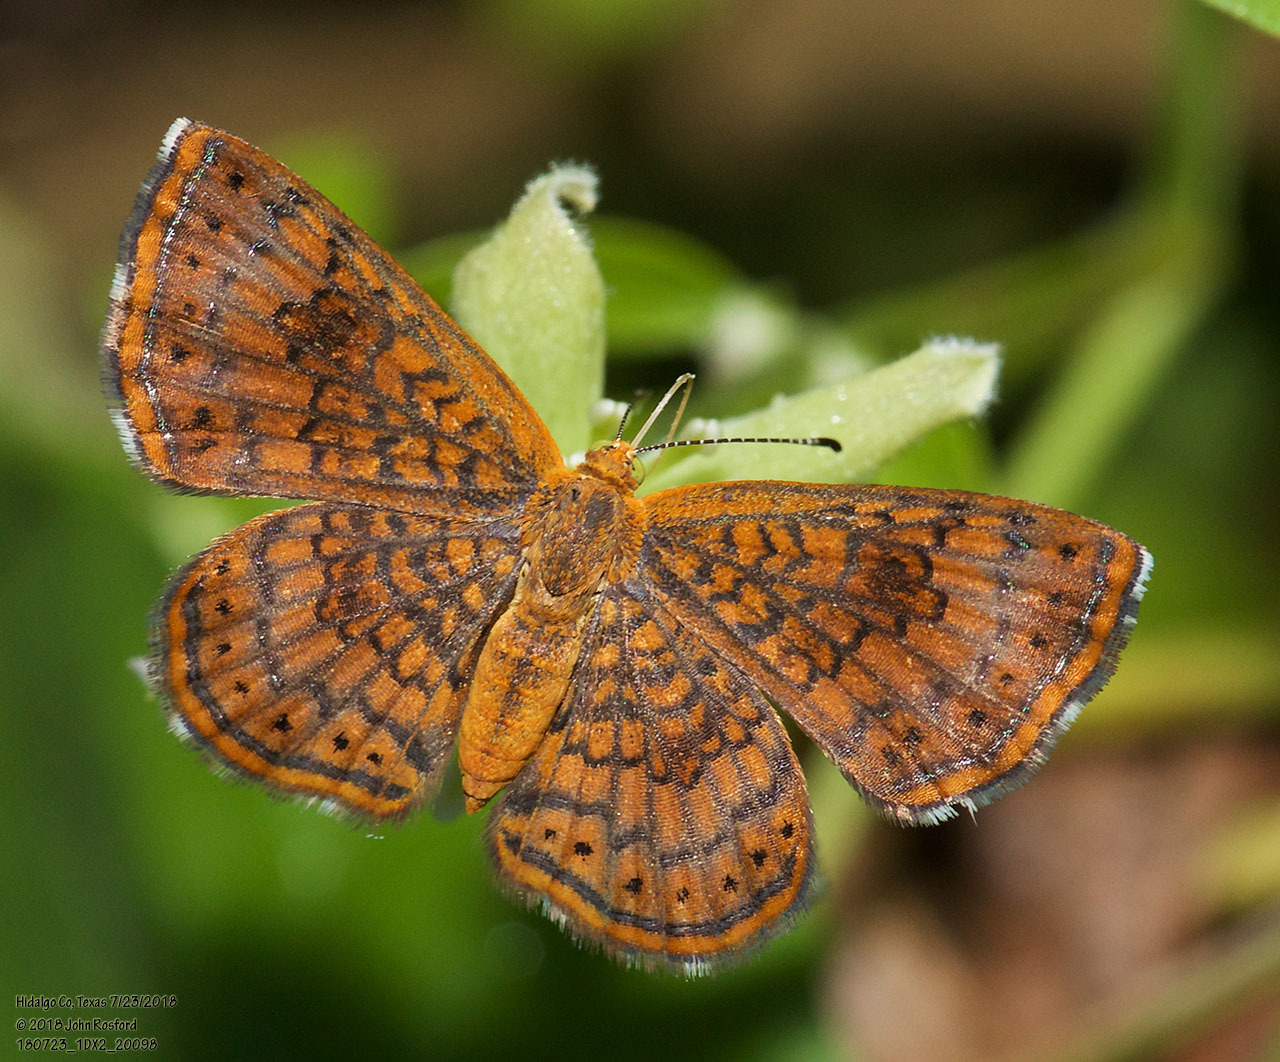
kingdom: Animalia
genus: Calephelis
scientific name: Calephelis nemesis
